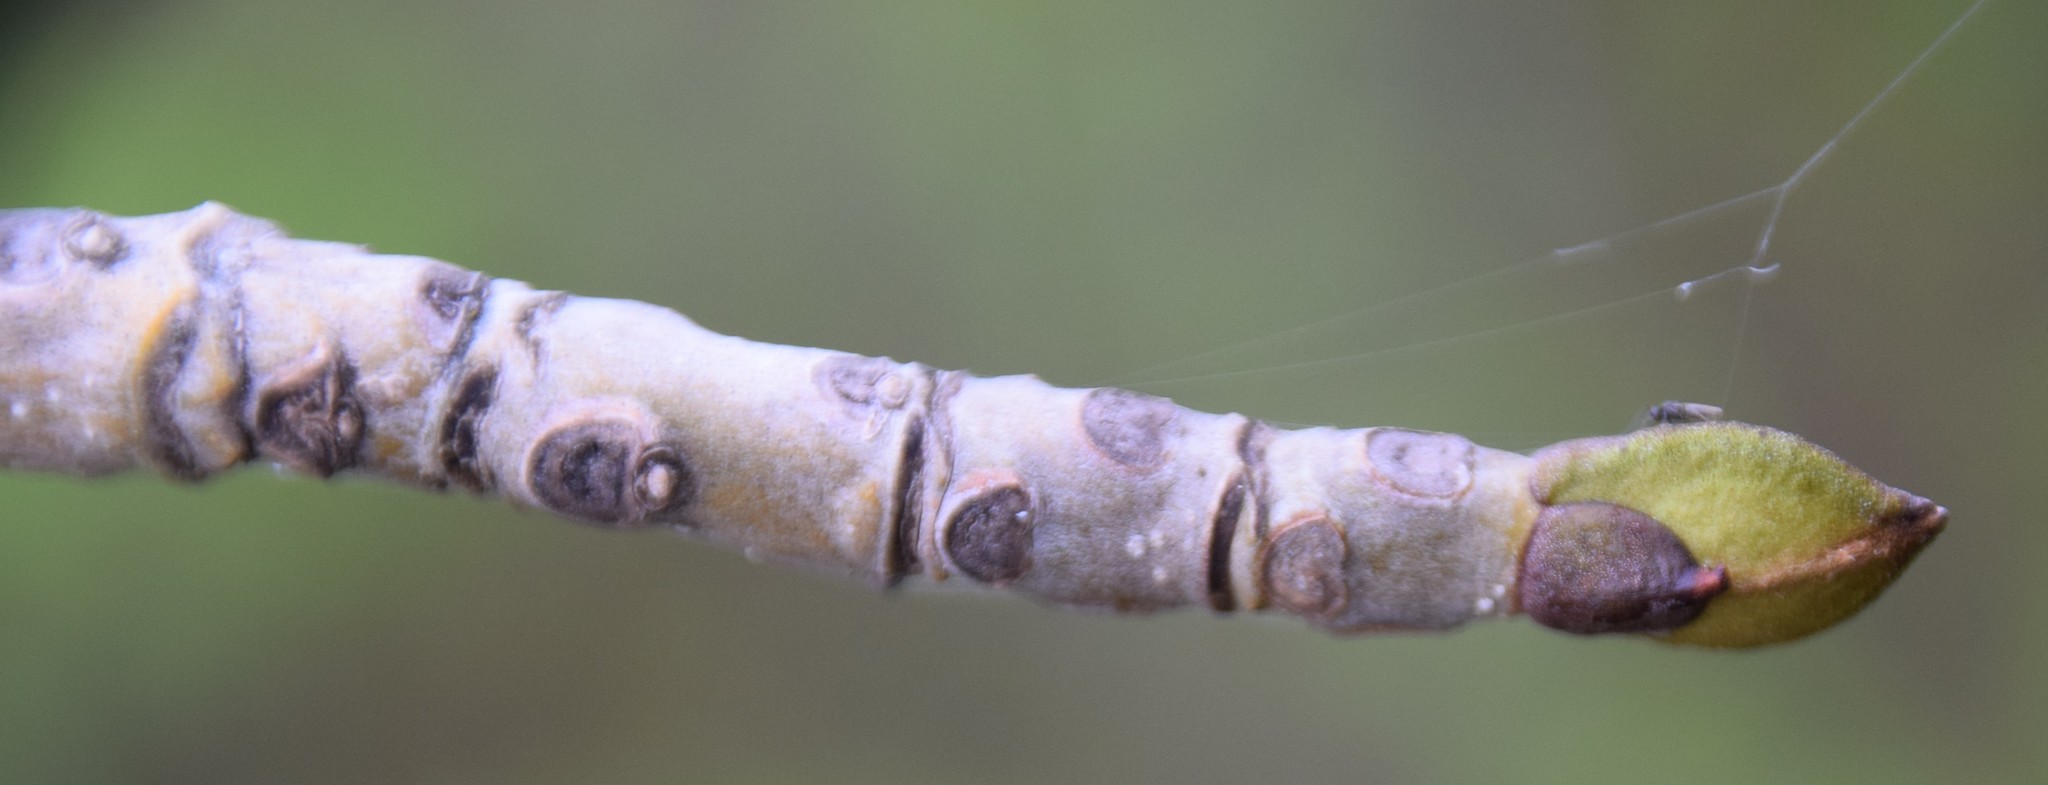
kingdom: Plantae
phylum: Tracheophyta
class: Magnoliopsida
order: Lamiales
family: Oleaceae
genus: Fraxinus
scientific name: Fraxinus nigra
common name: Black ash
